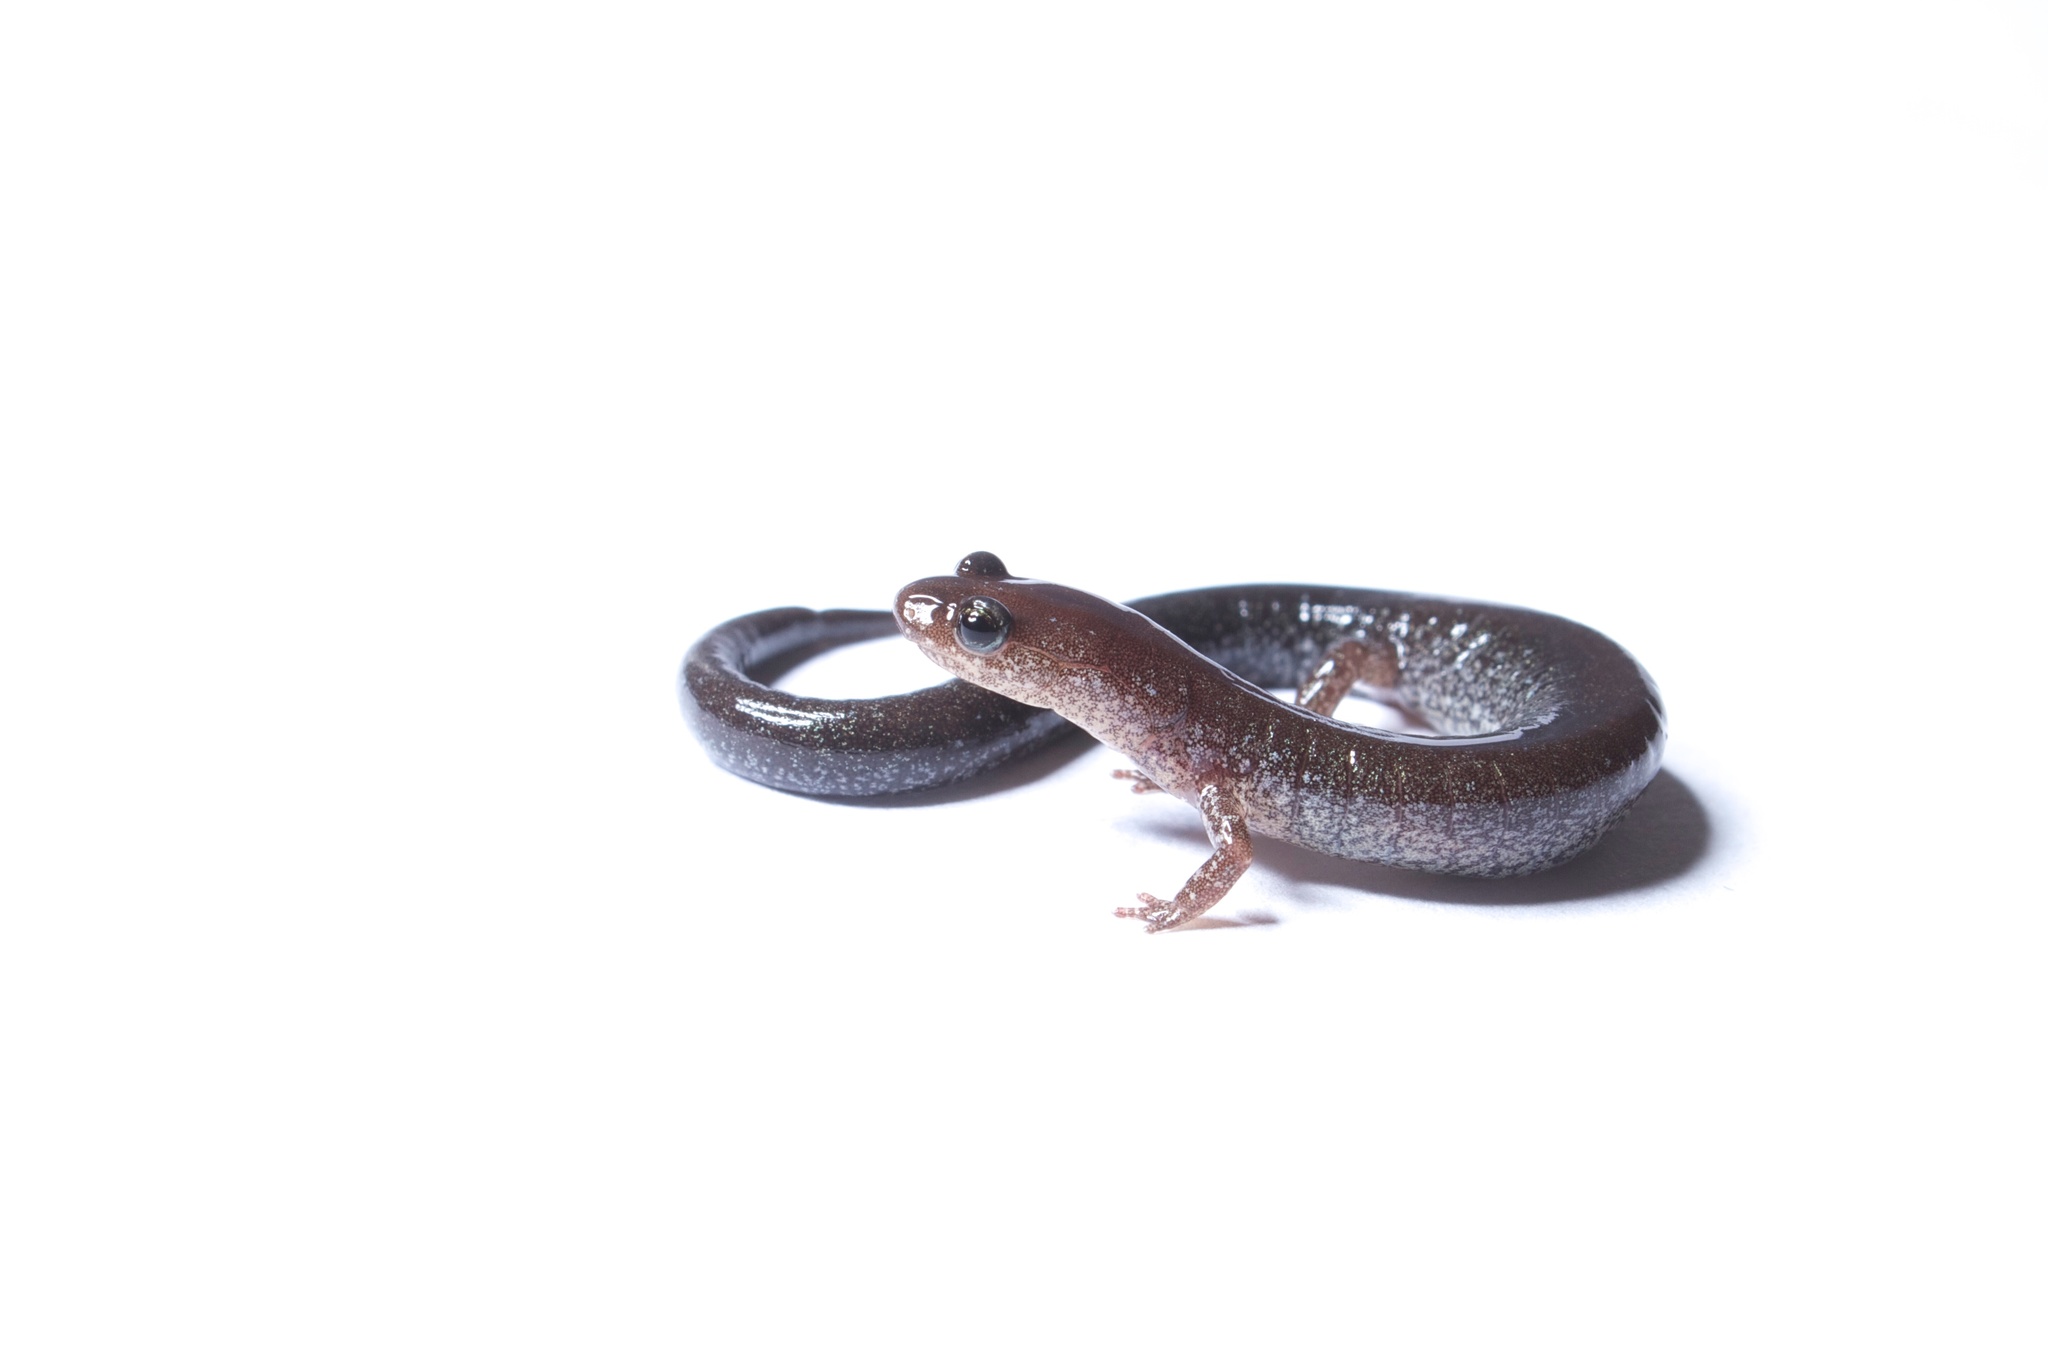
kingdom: Animalia
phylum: Chordata
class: Amphibia
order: Caudata
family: Plethodontidae
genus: Plethodon
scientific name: Plethodon cinereus
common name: Redback salamander
